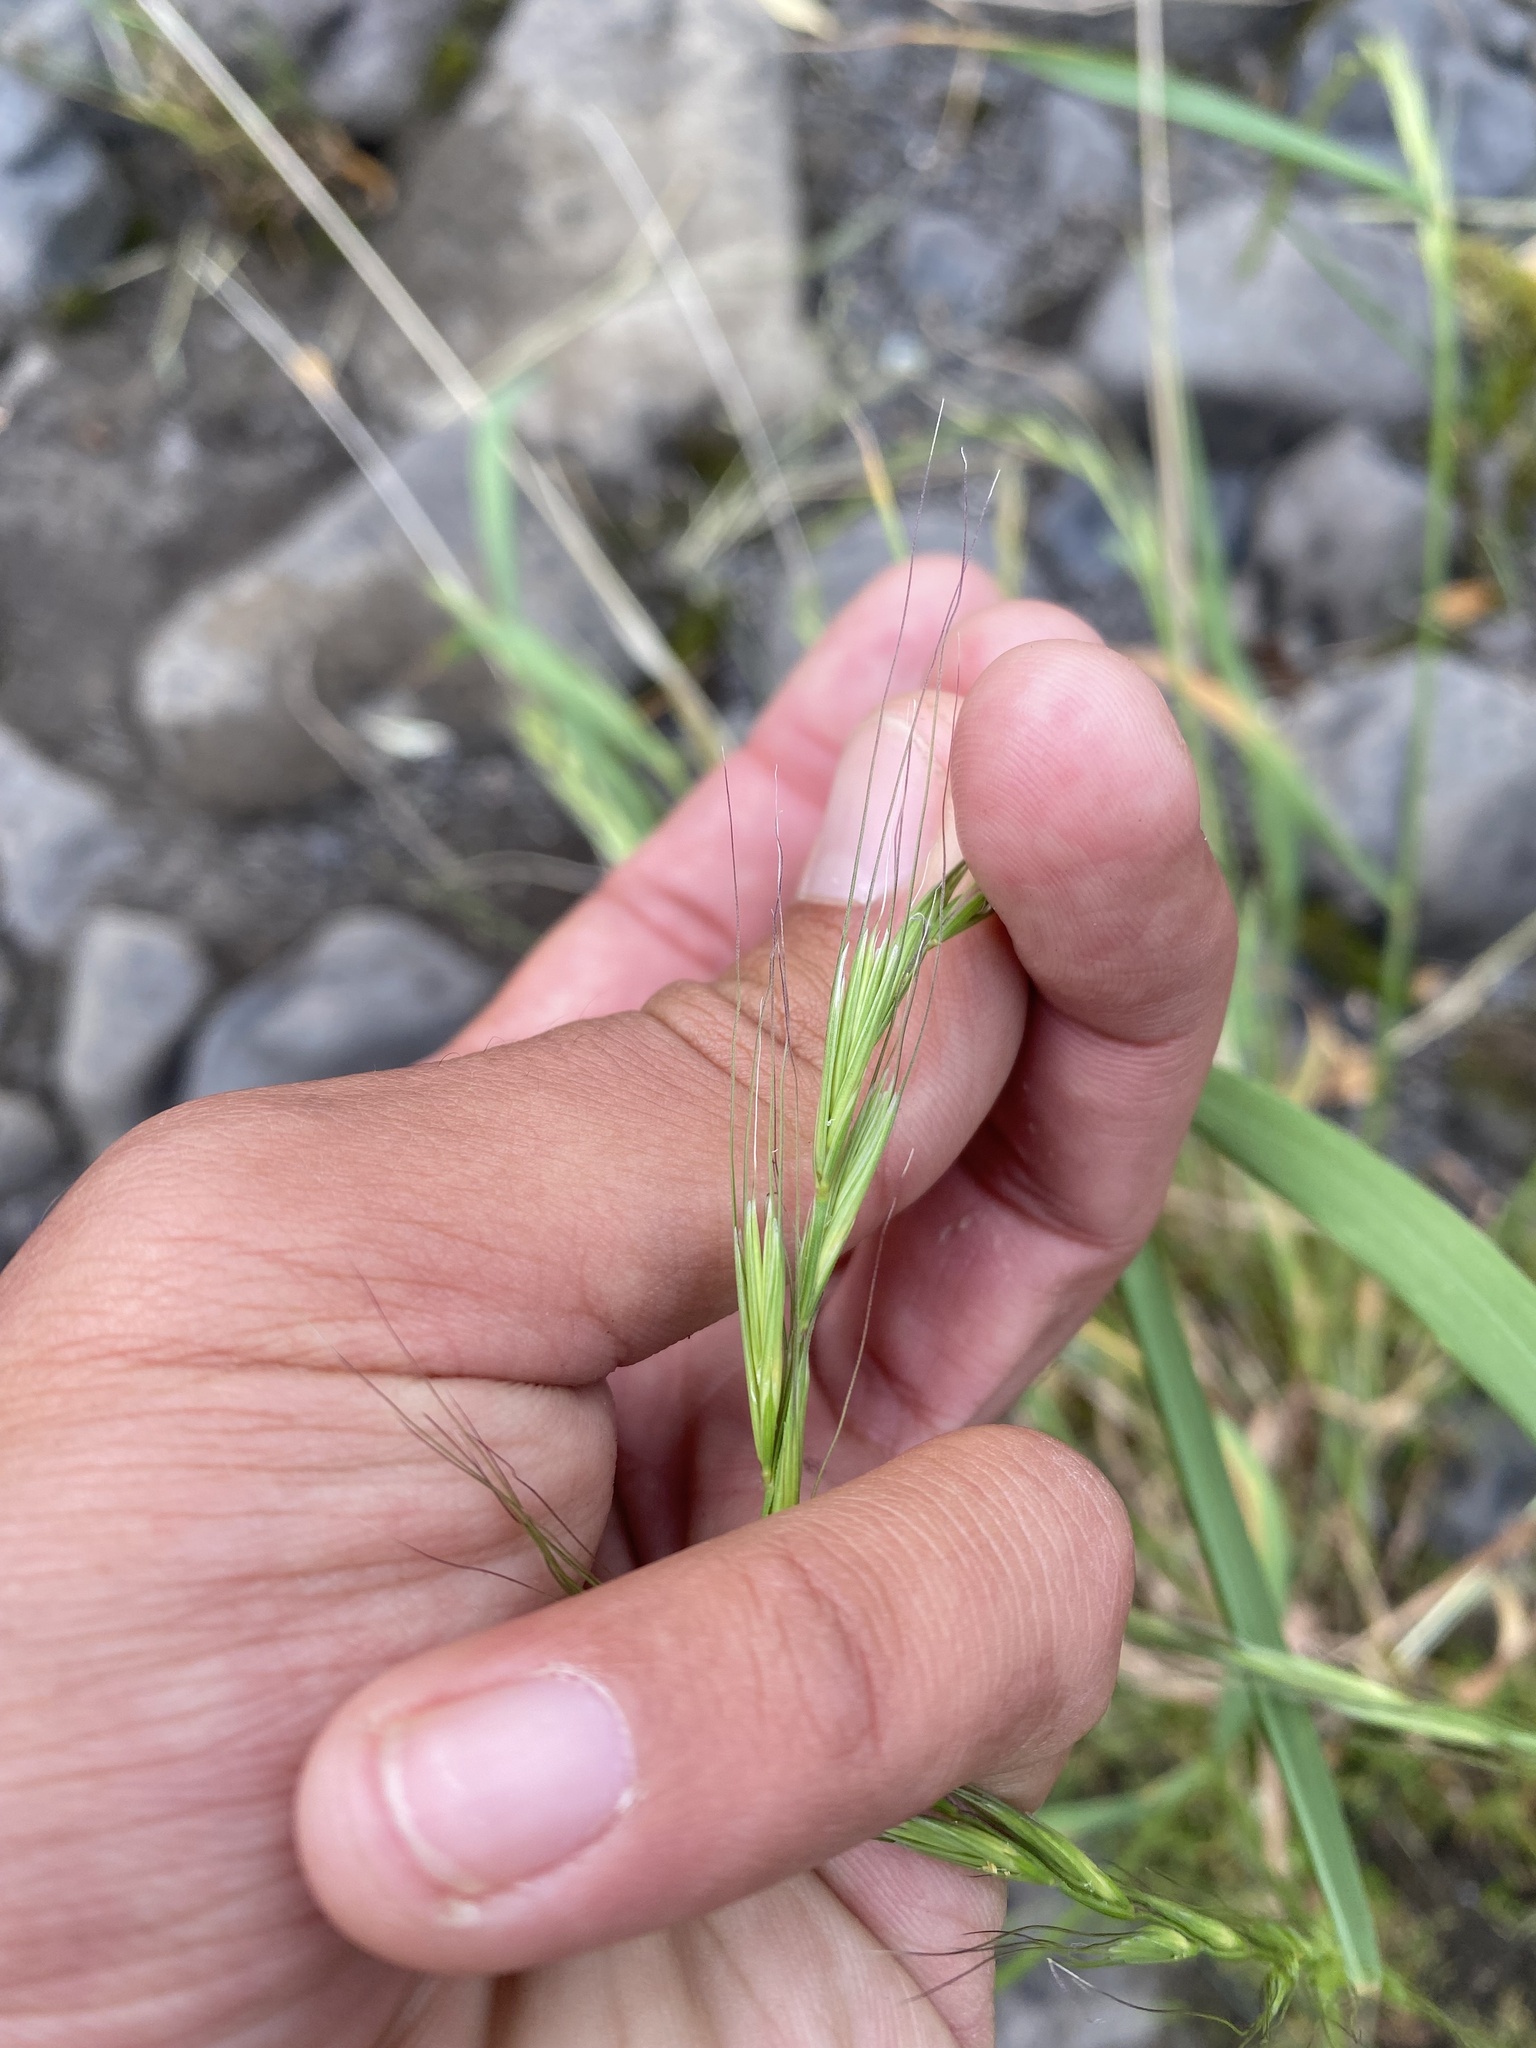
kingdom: Plantae
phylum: Tracheophyta
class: Liliopsida
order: Poales
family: Poaceae
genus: Elymus
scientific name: Elymus confusus
